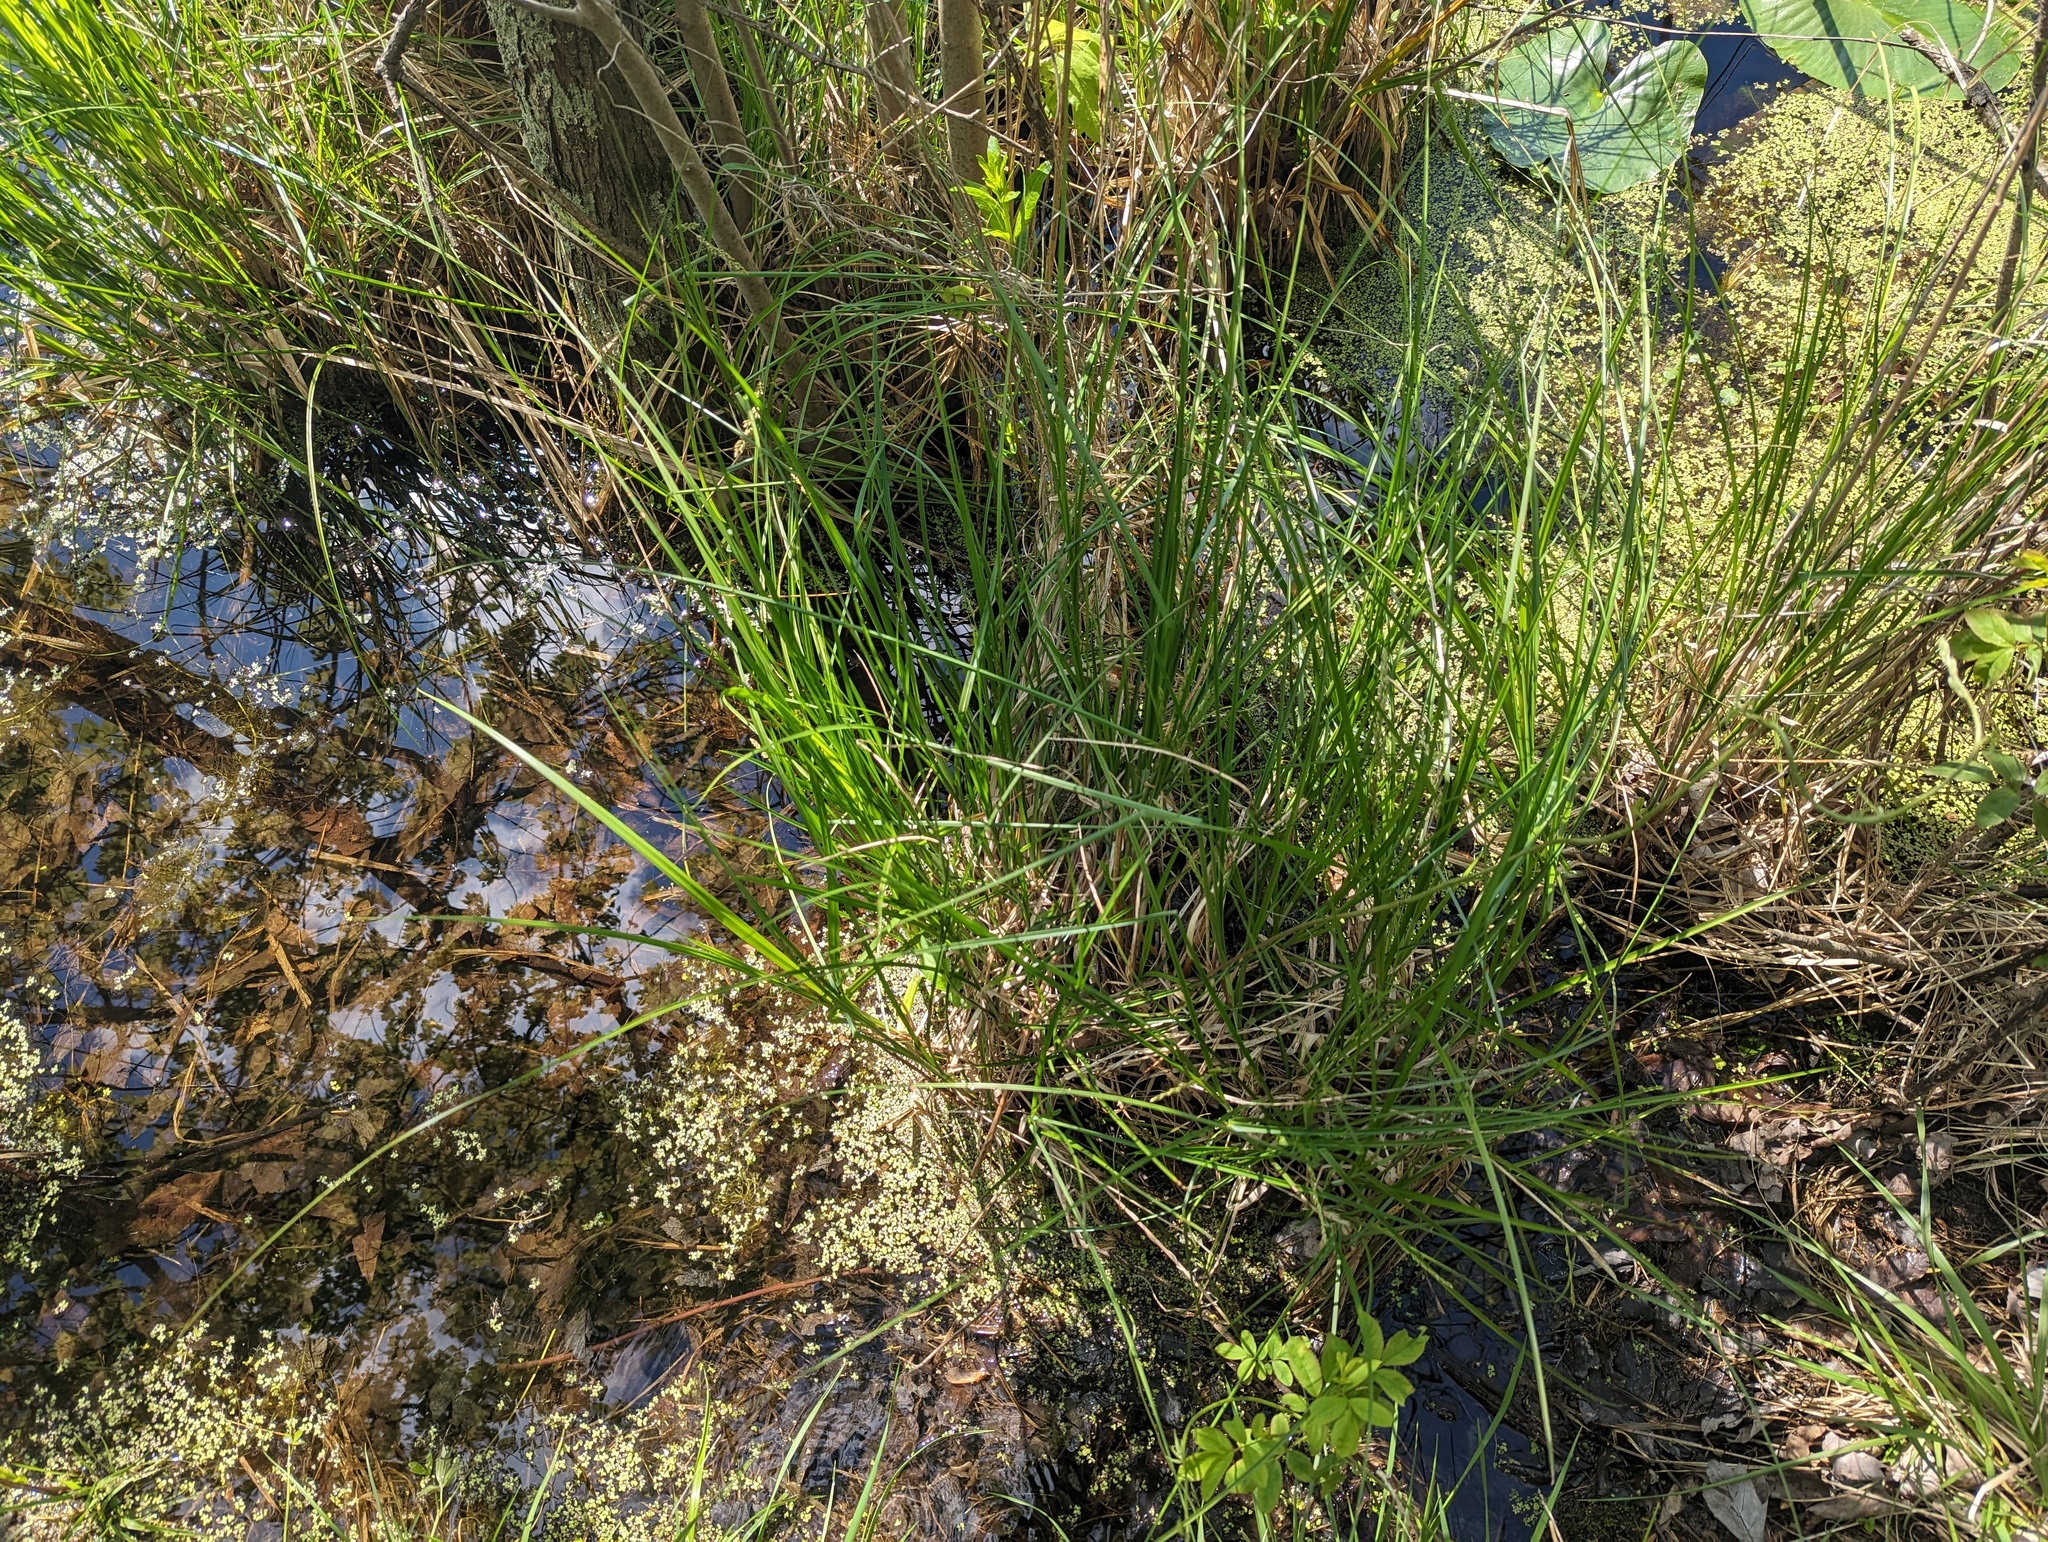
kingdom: Plantae
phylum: Tracheophyta
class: Liliopsida
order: Poales
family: Cyperaceae
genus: Carex
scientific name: Carex decomposita
